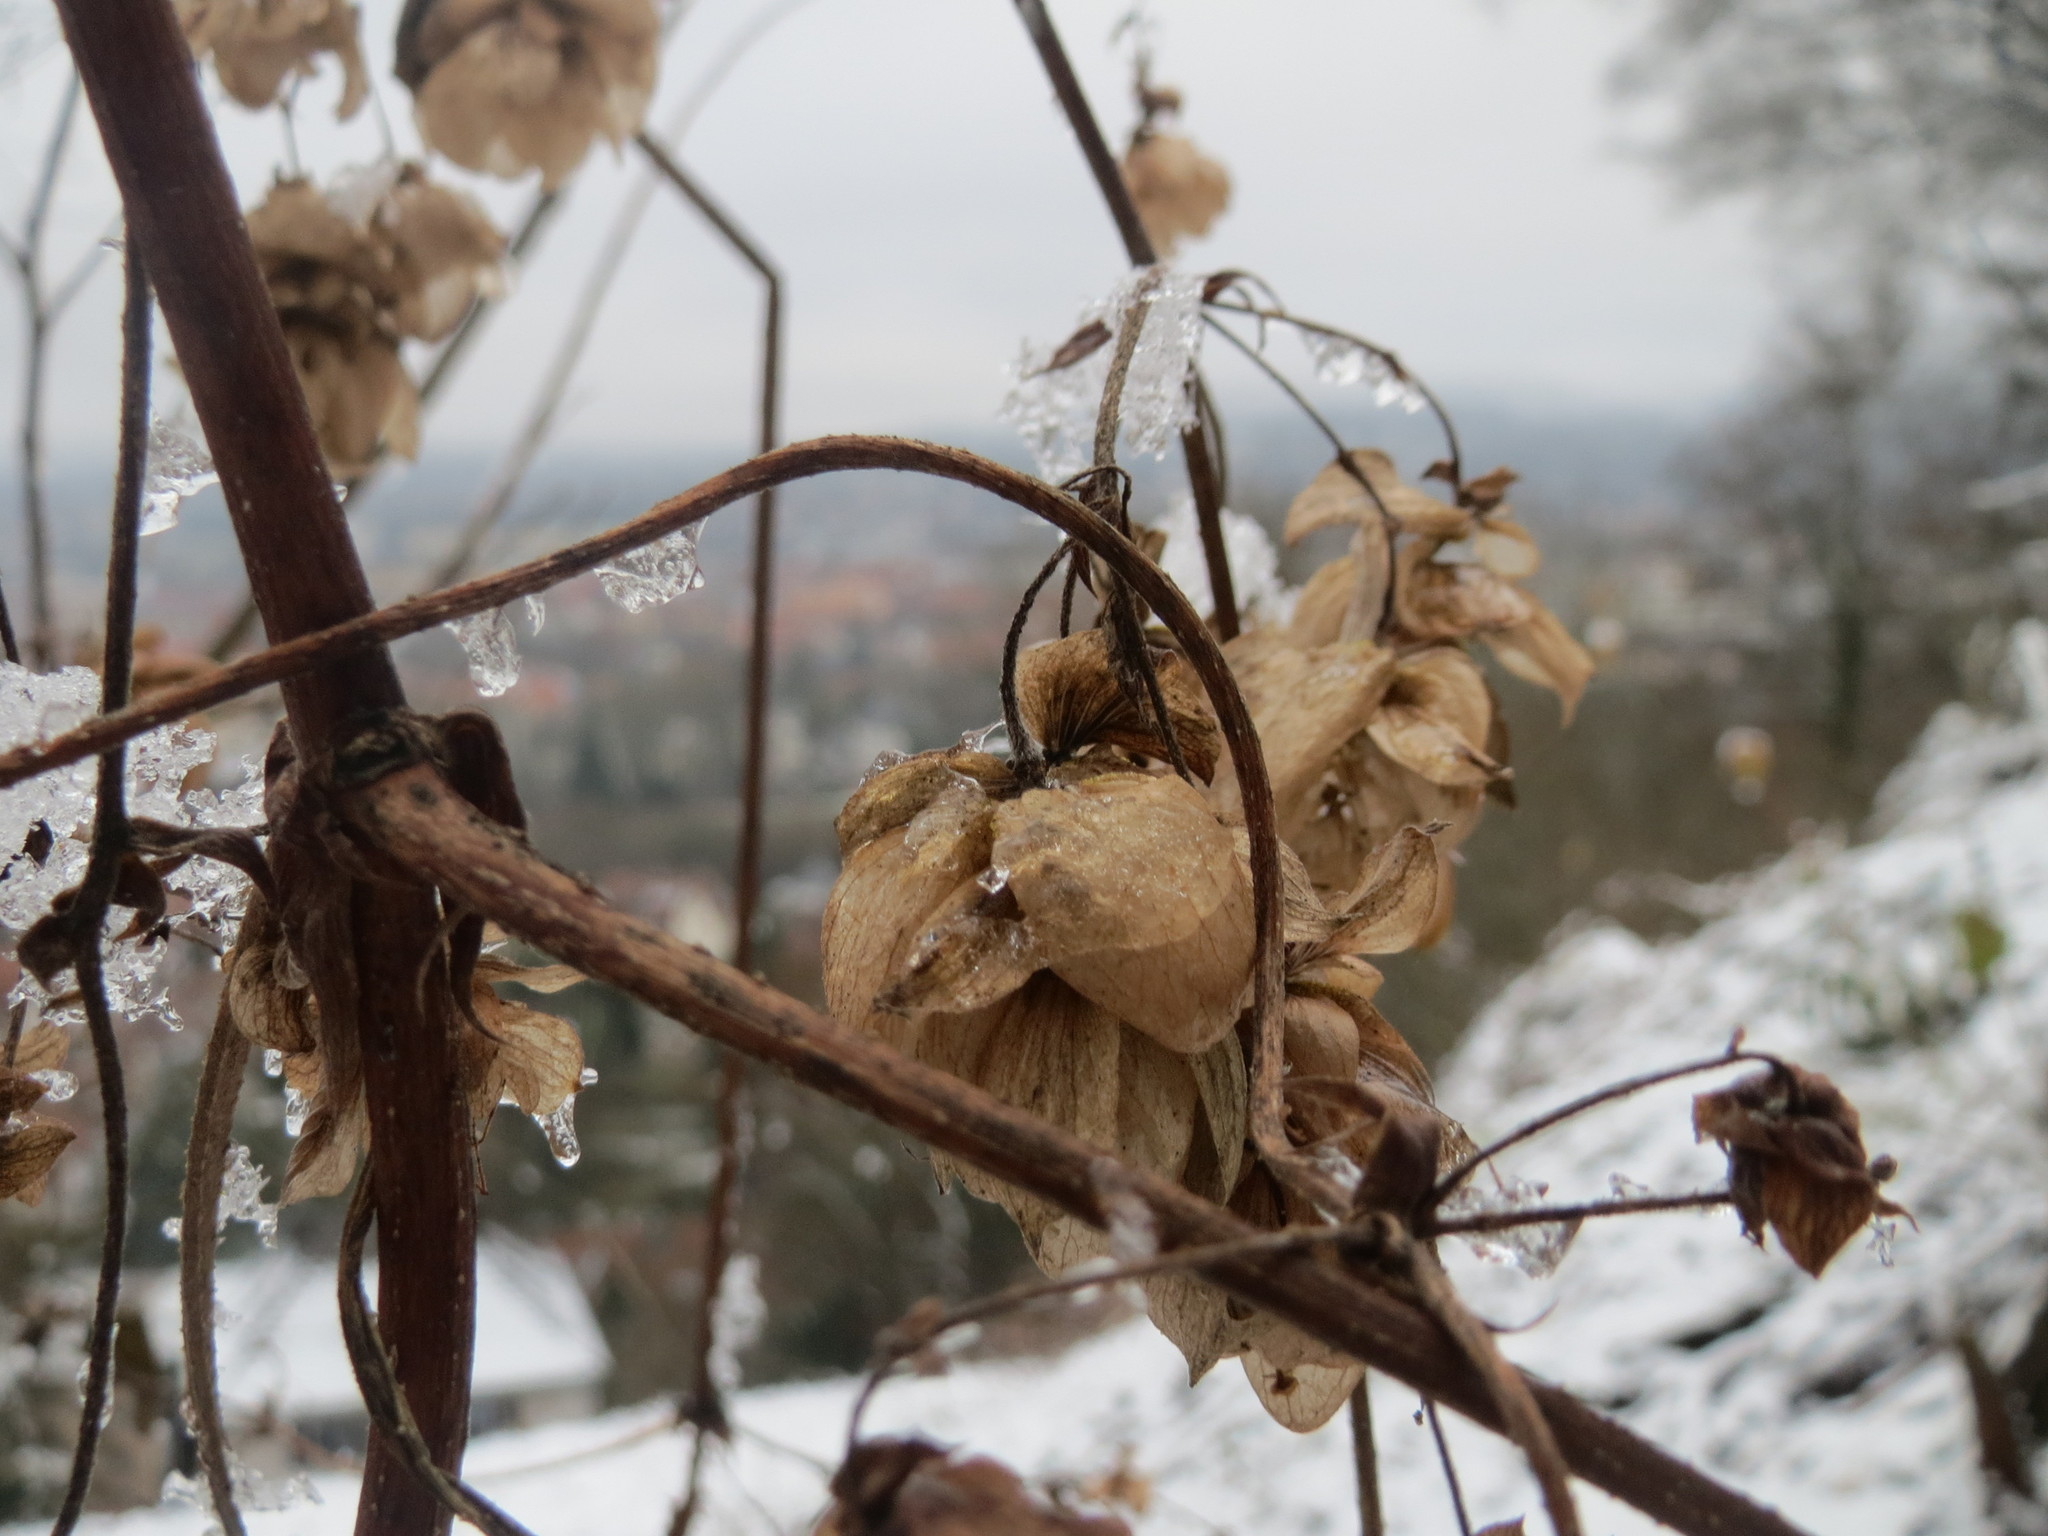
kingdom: Plantae
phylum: Tracheophyta
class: Magnoliopsida
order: Rosales
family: Cannabaceae
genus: Humulus
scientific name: Humulus lupulus
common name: Hop
